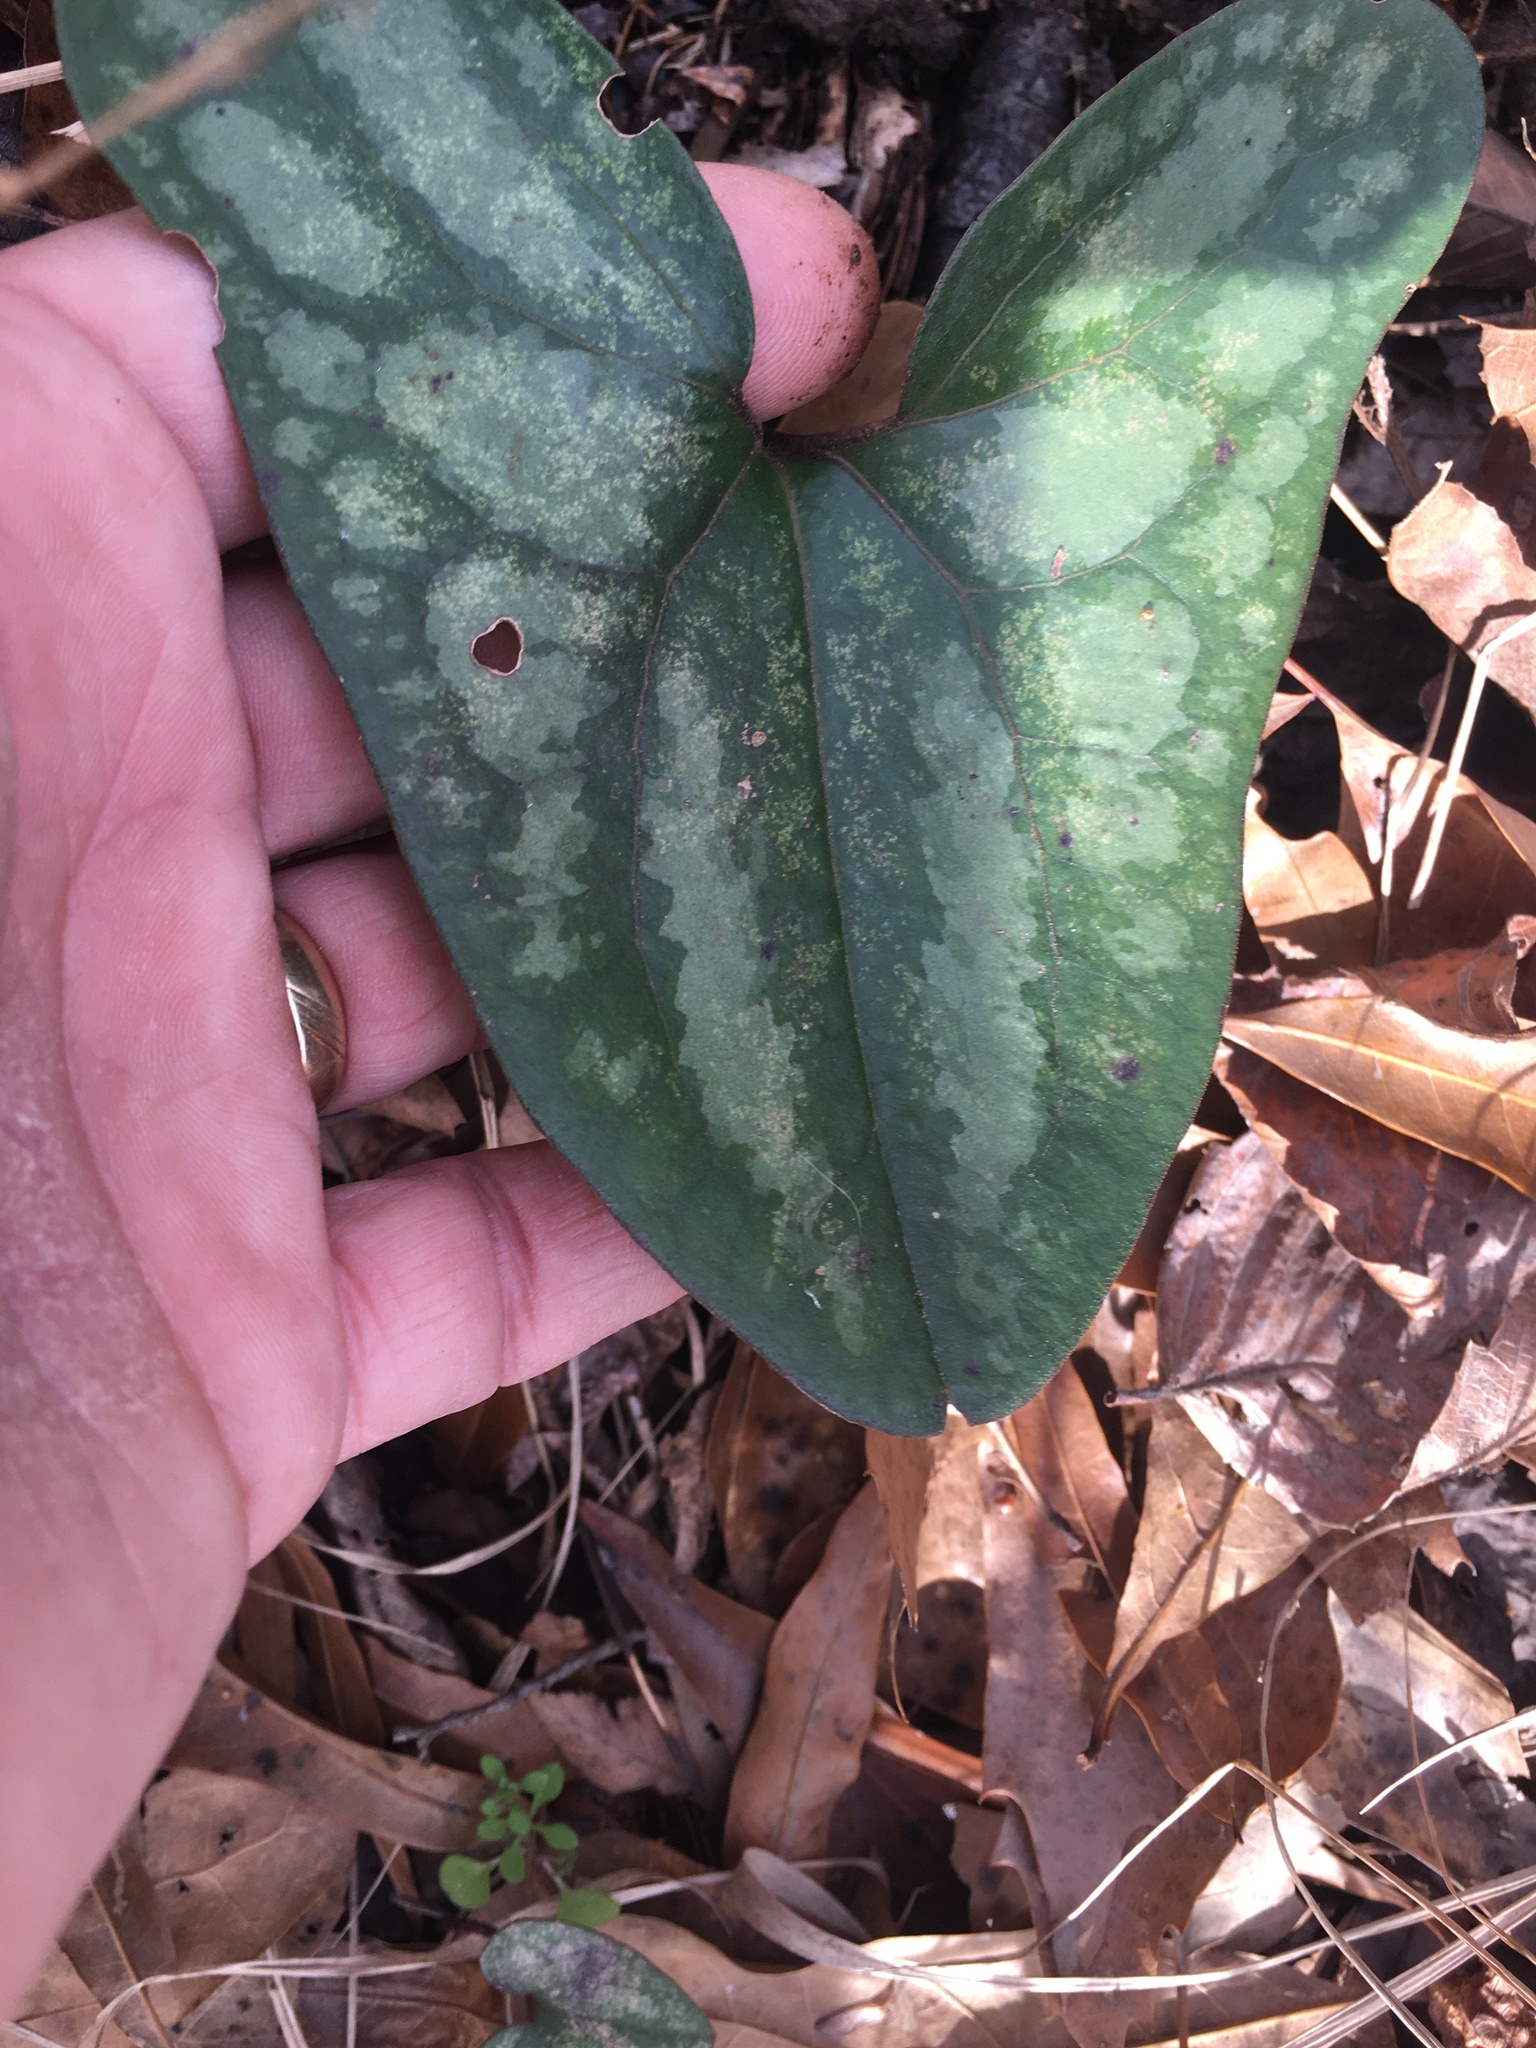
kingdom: Plantae
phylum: Tracheophyta
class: Magnoliopsida
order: Piperales
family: Aristolochiaceae
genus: Hexastylis
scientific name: Hexastylis arifolia
